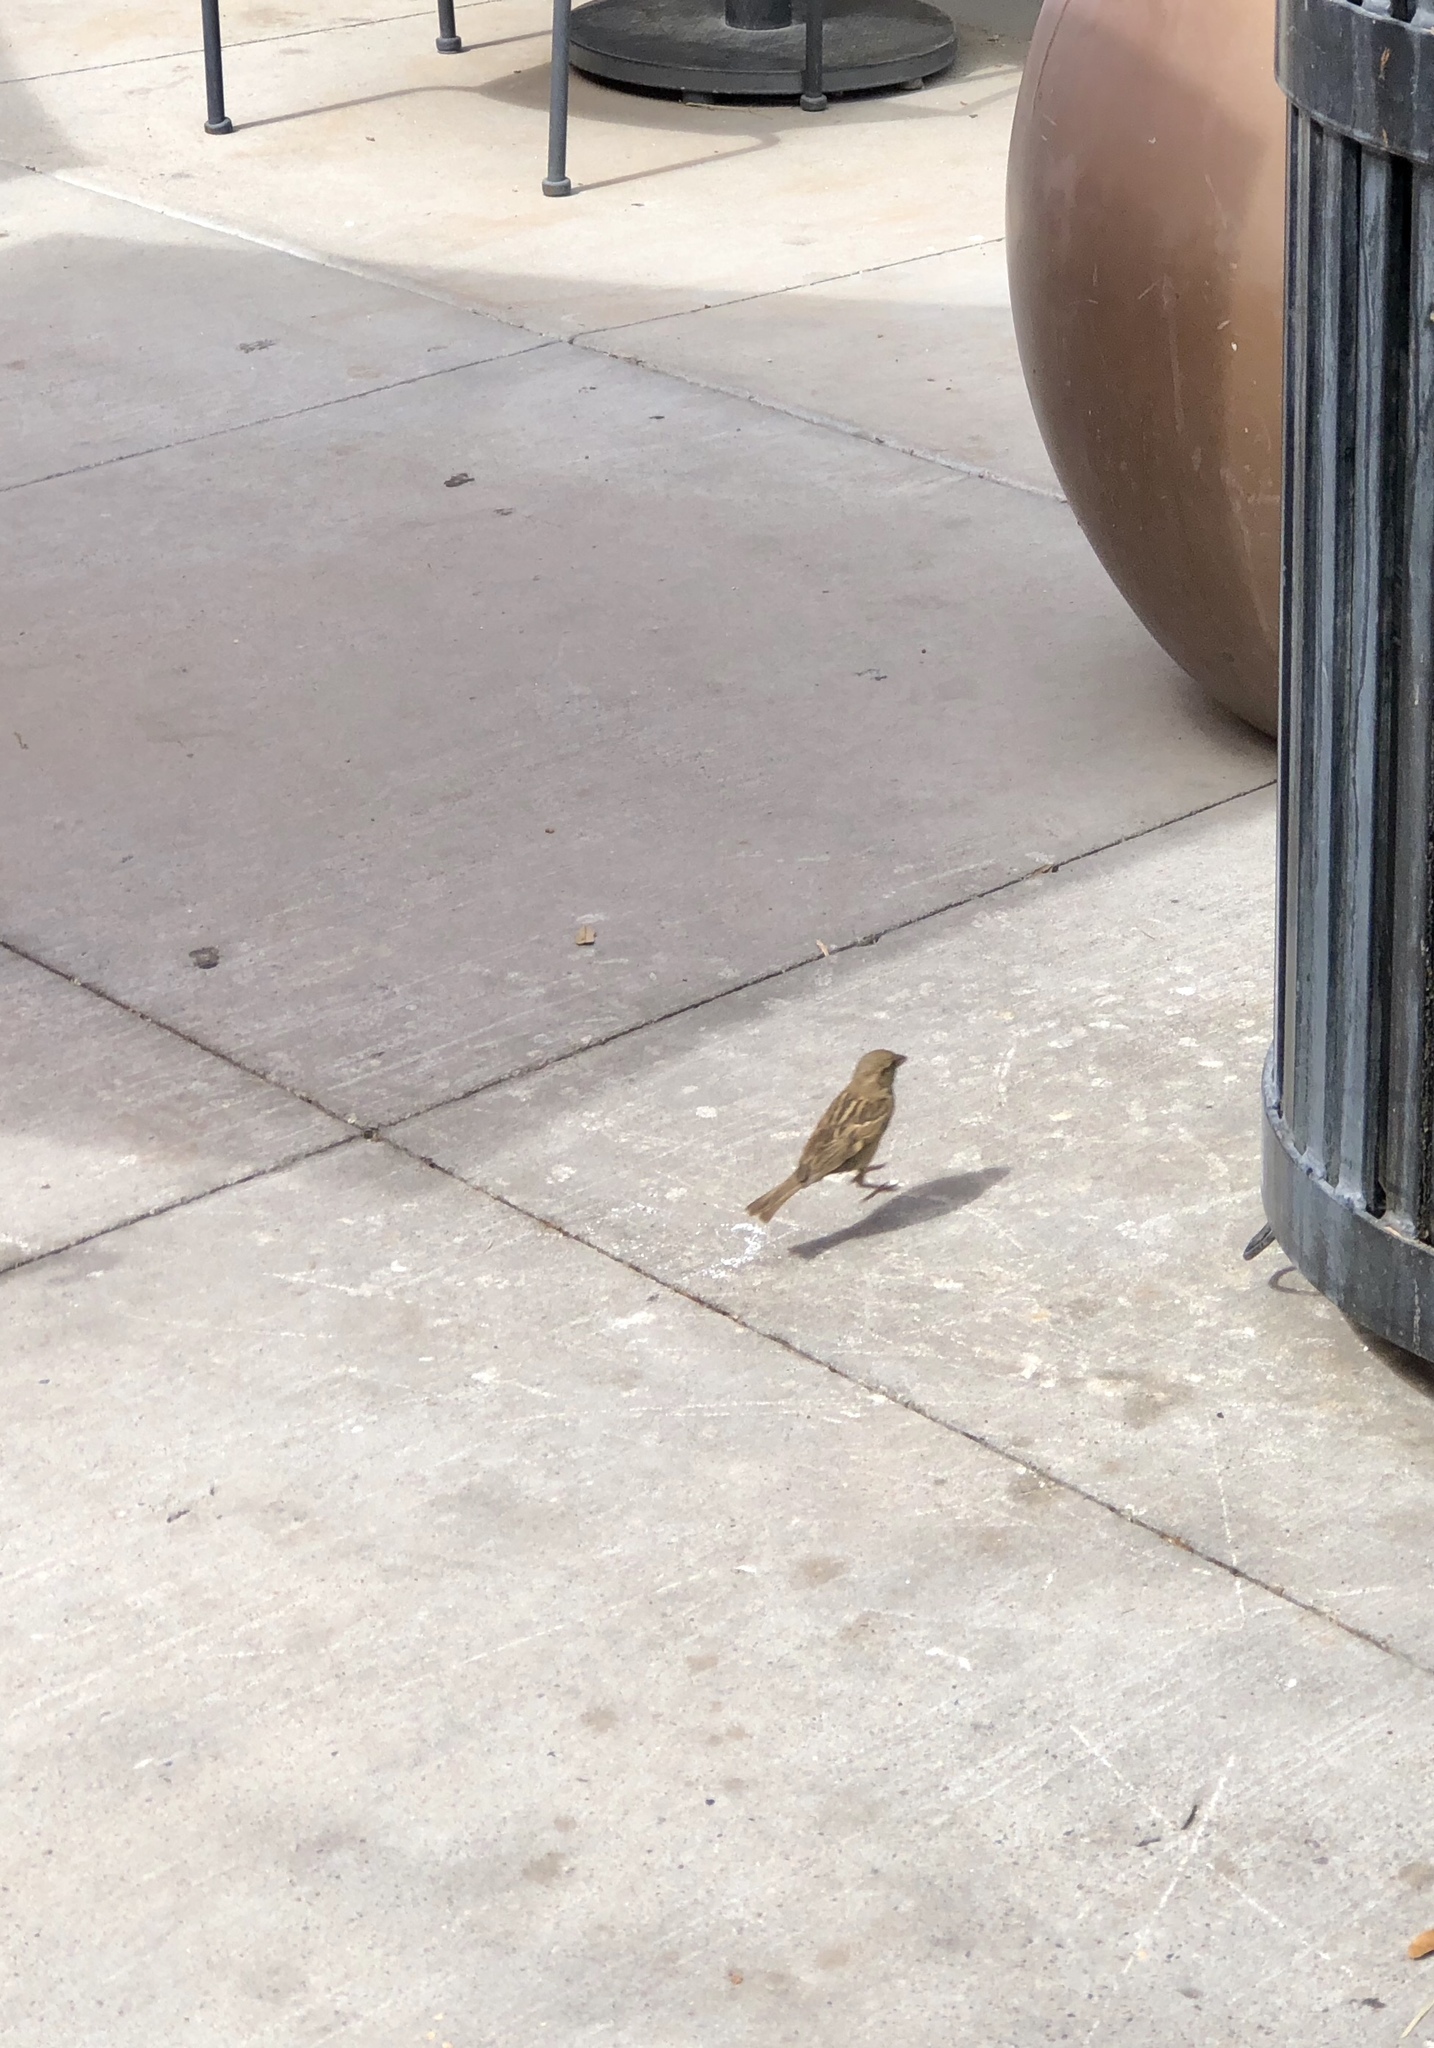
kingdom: Animalia
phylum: Chordata
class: Aves
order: Passeriformes
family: Passeridae
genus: Passer
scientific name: Passer domesticus
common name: House sparrow
